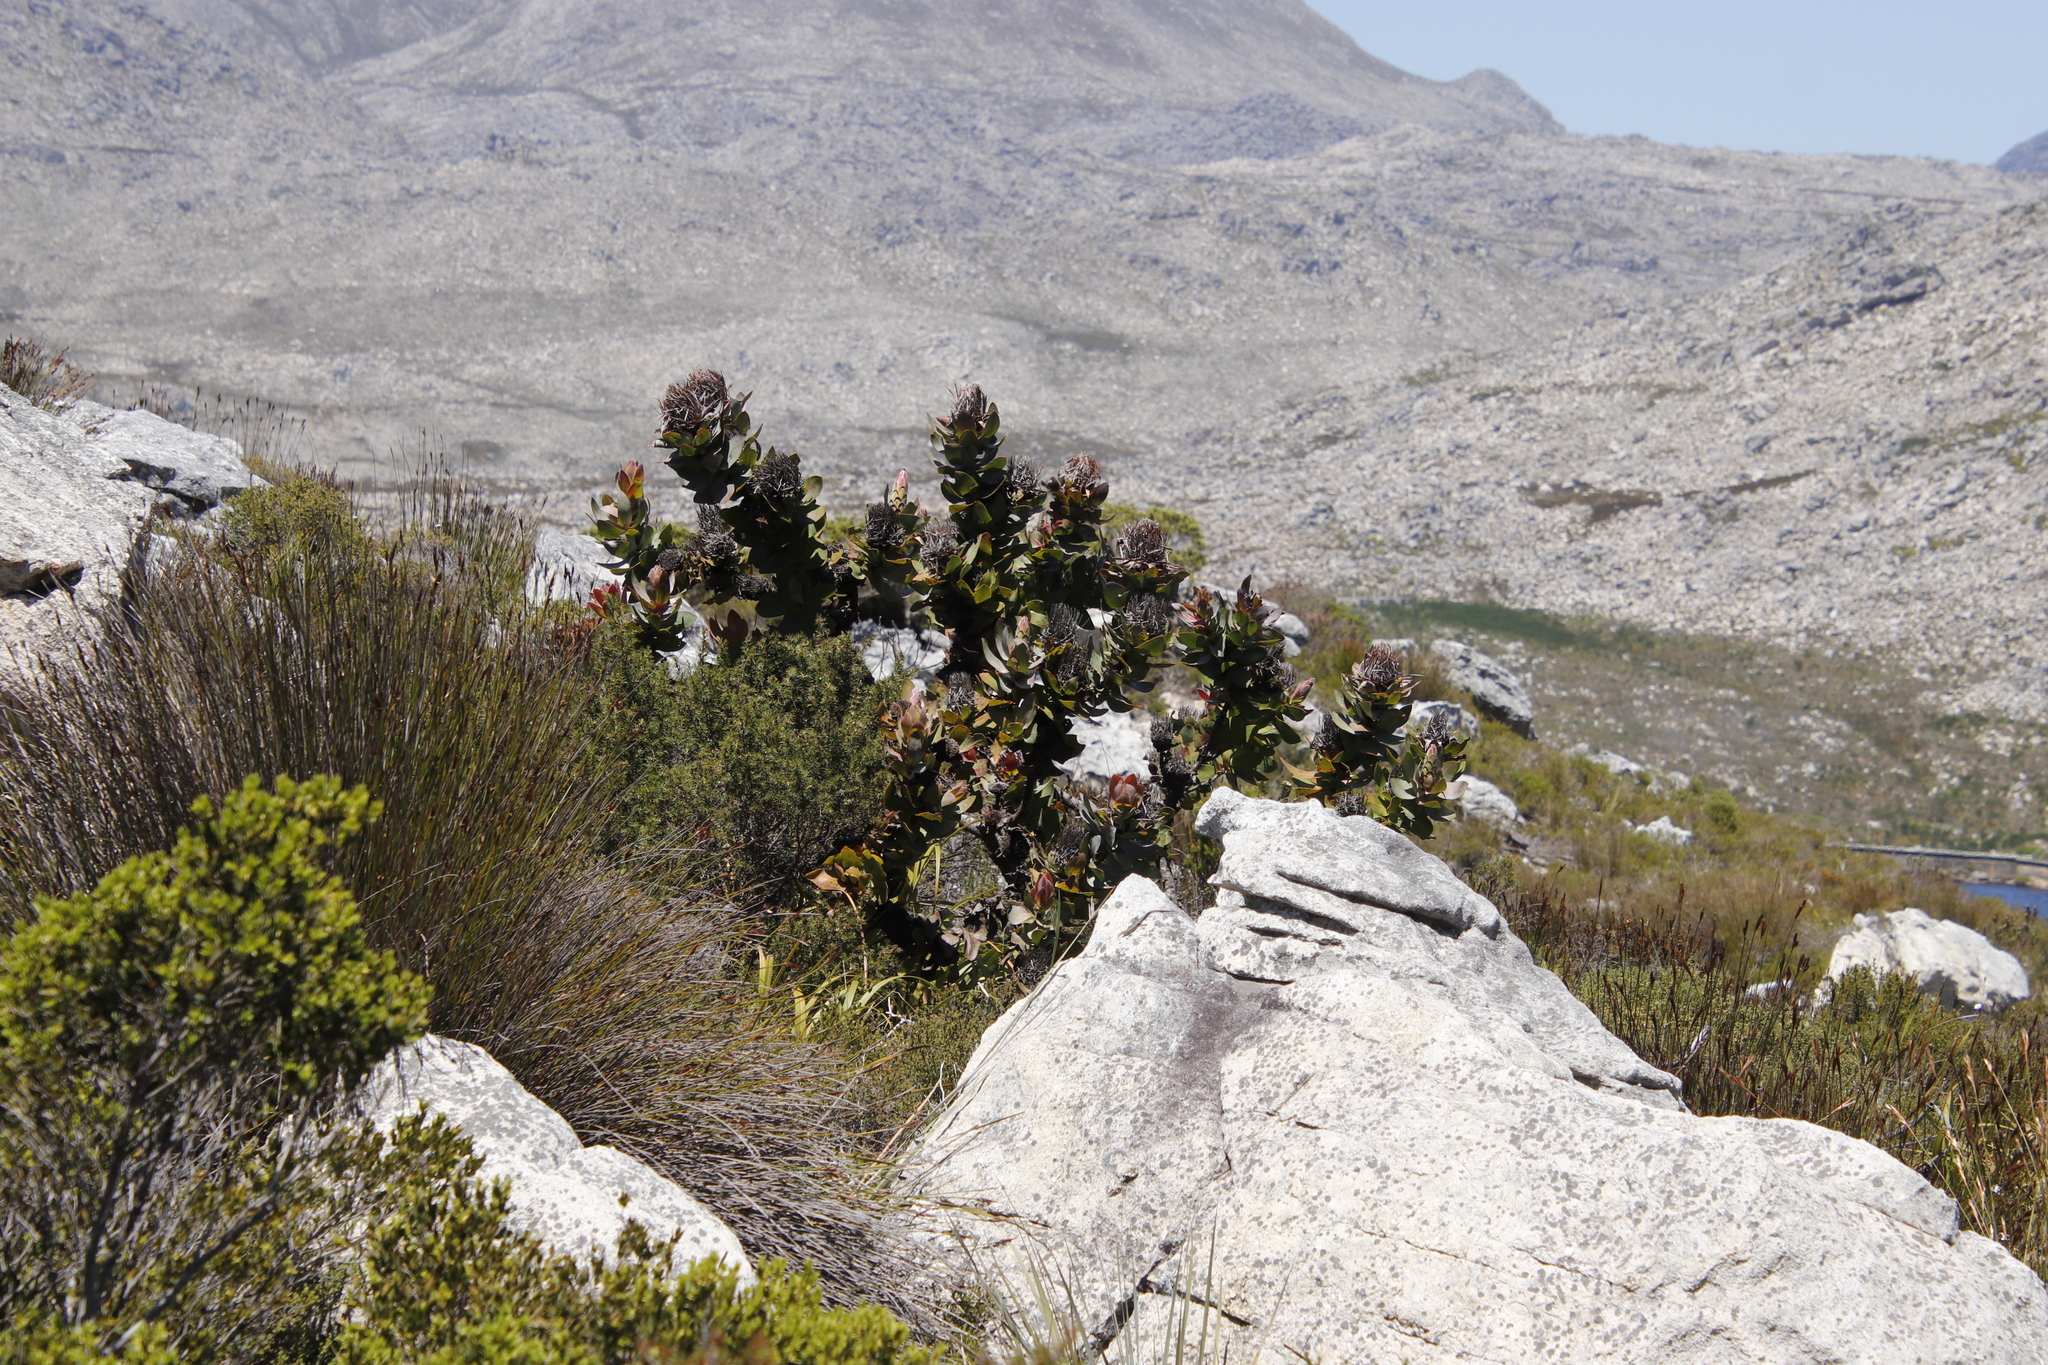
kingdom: Plantae
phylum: Tracheophyta
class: Magnoliopsida
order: Proteales
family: Proteaceae
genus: Protea
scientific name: Protea eximia
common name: Broad-leaved sugarbush
